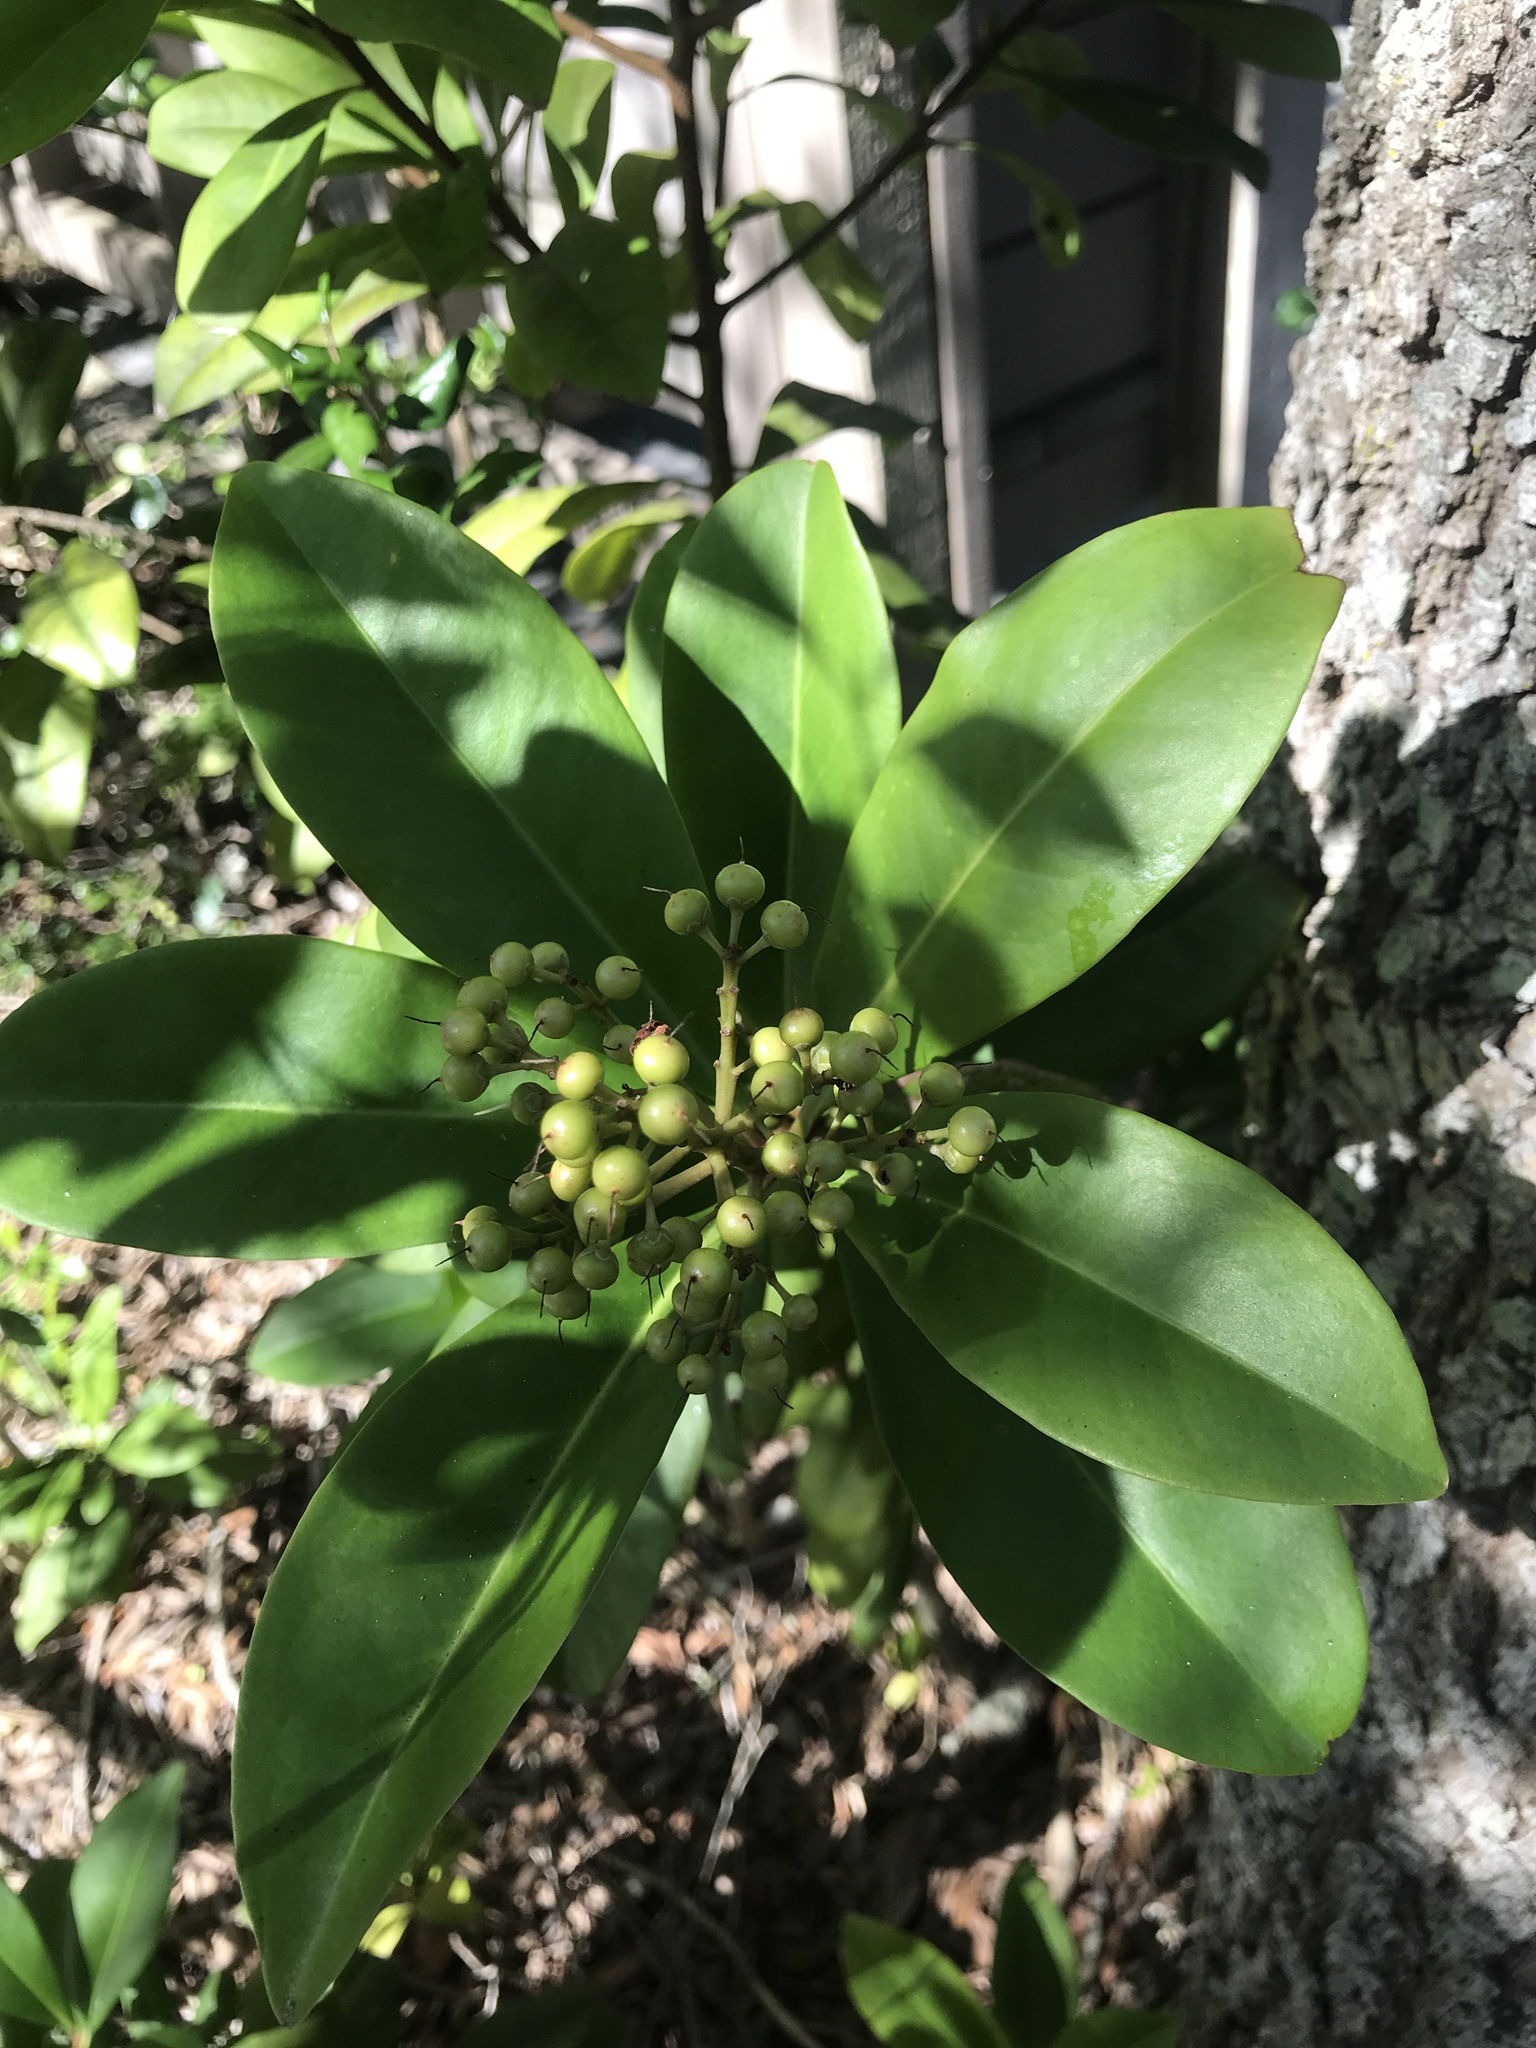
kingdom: Plantae
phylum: Tracheophyta
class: Magnoliopsida
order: Ericales
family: Primulaceae
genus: Ardisia
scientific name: Ardisia escallonioides
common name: Island marlberry
